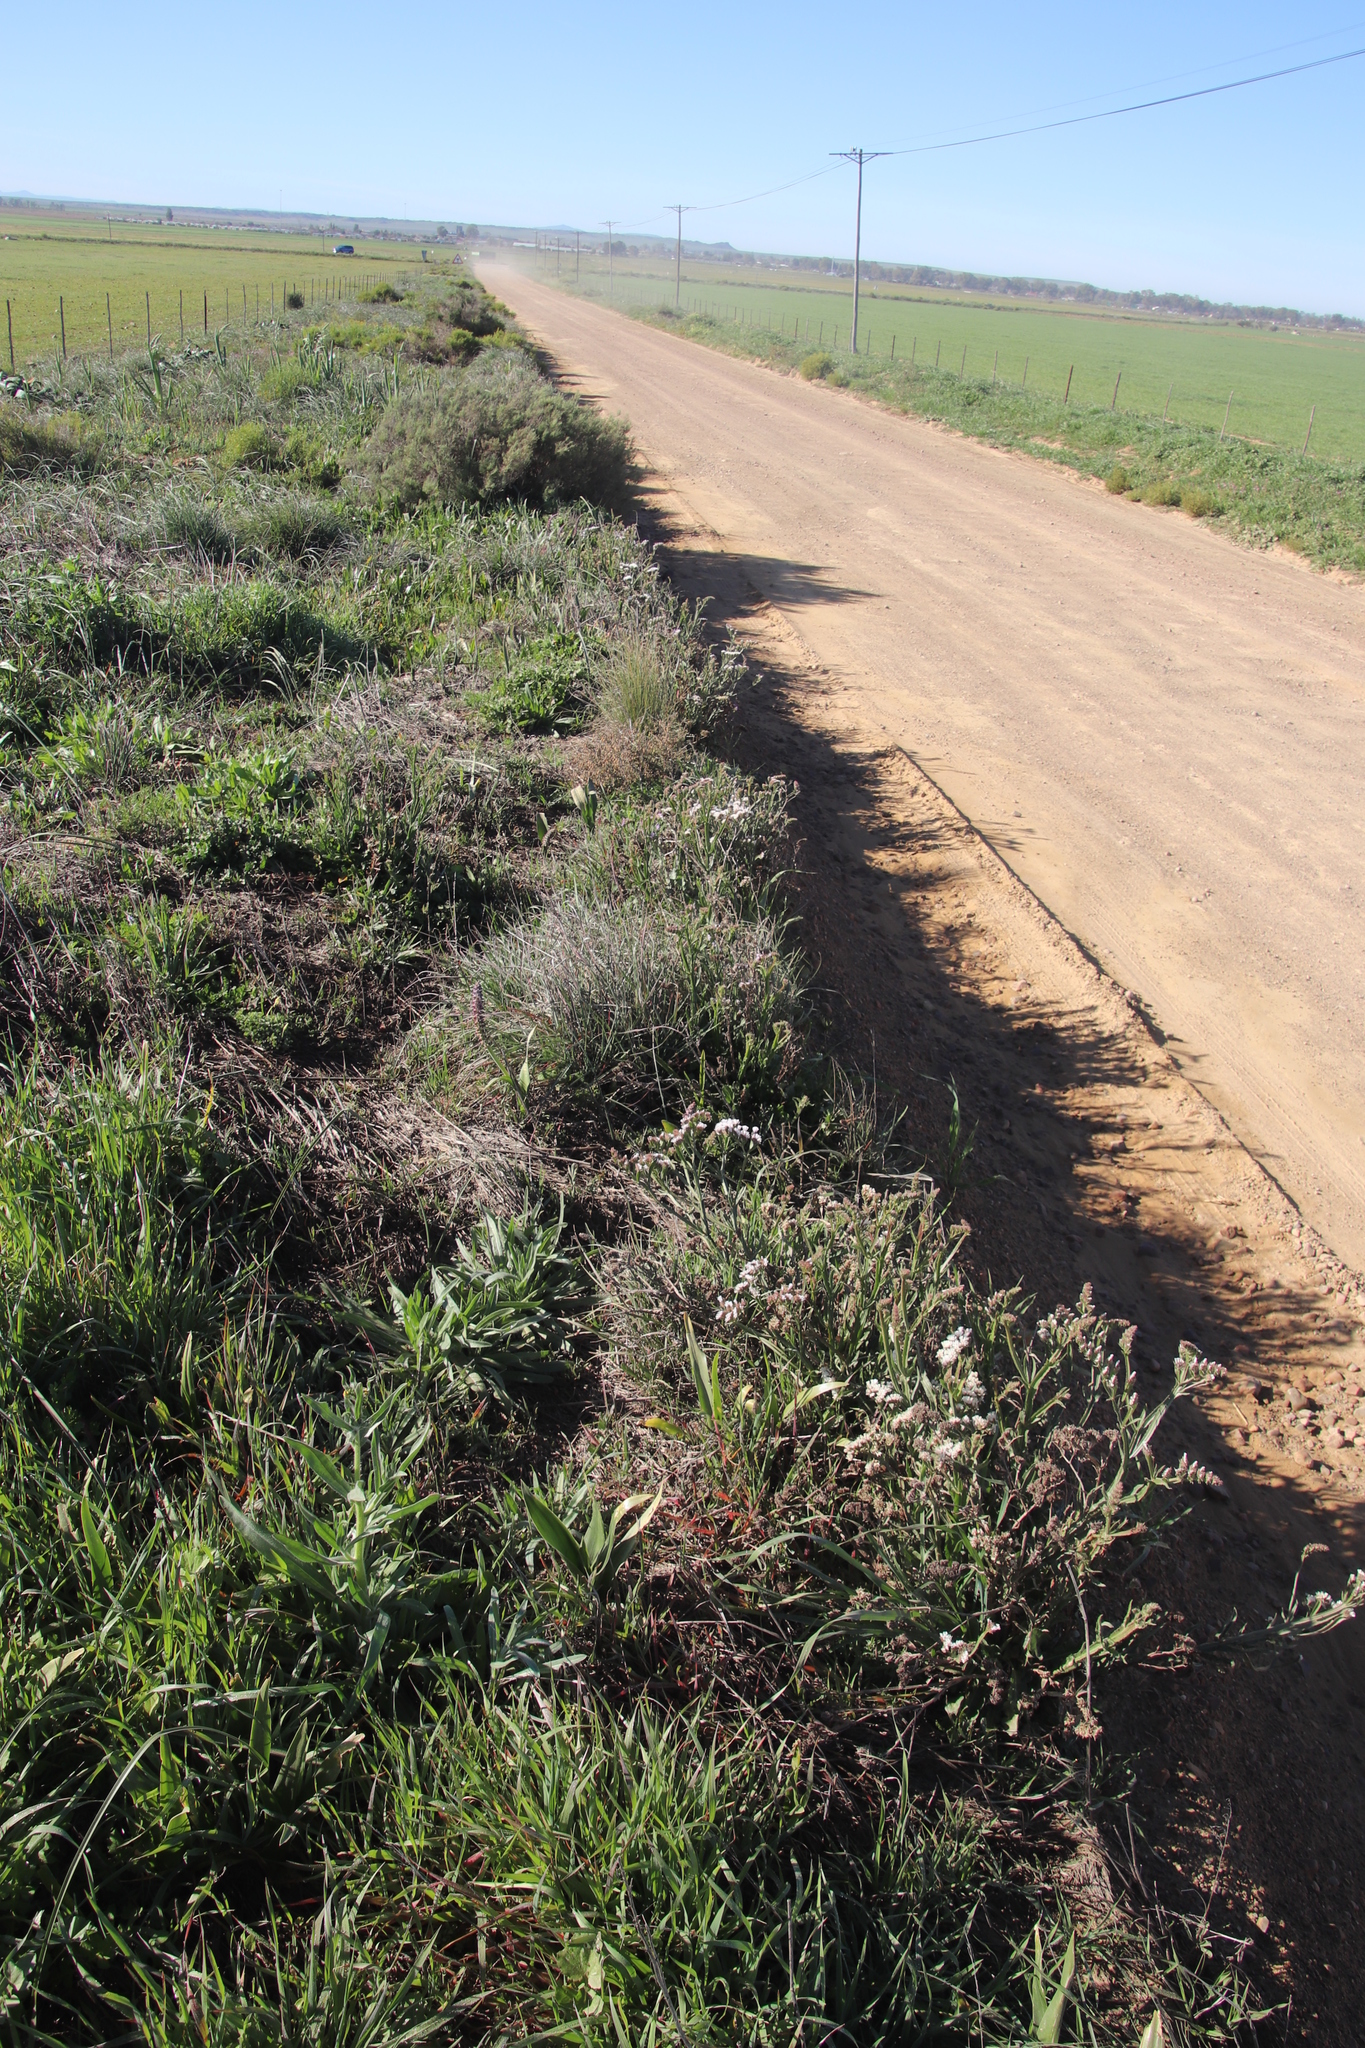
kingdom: Plantae
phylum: Tracheophyta
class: Magnoliopsida
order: Caryophyllales
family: Plumbaginaceae
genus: Limonium
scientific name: Limonium sinuatum
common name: Statice
